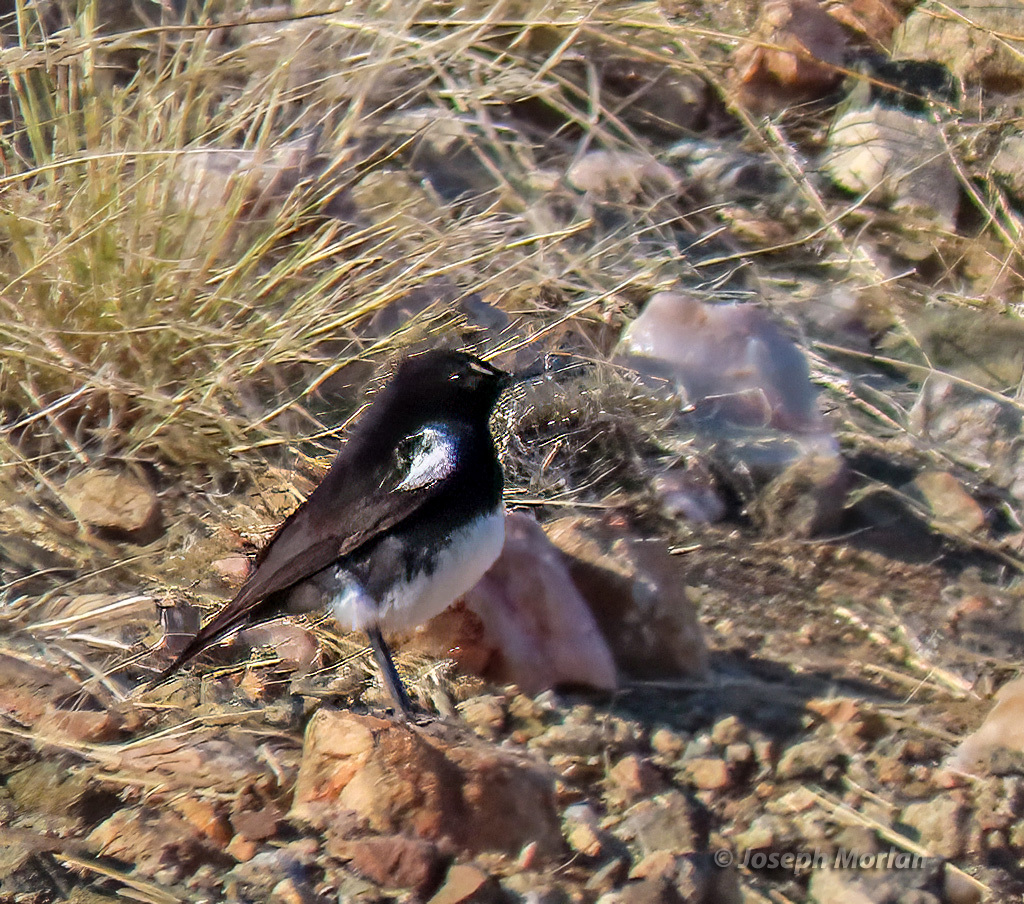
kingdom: Animalia
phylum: Chordata
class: Aves
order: Passeriformes
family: Muscicapidae
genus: Oenanthe
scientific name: Oenanthe monticola
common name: Mountain wheatear
